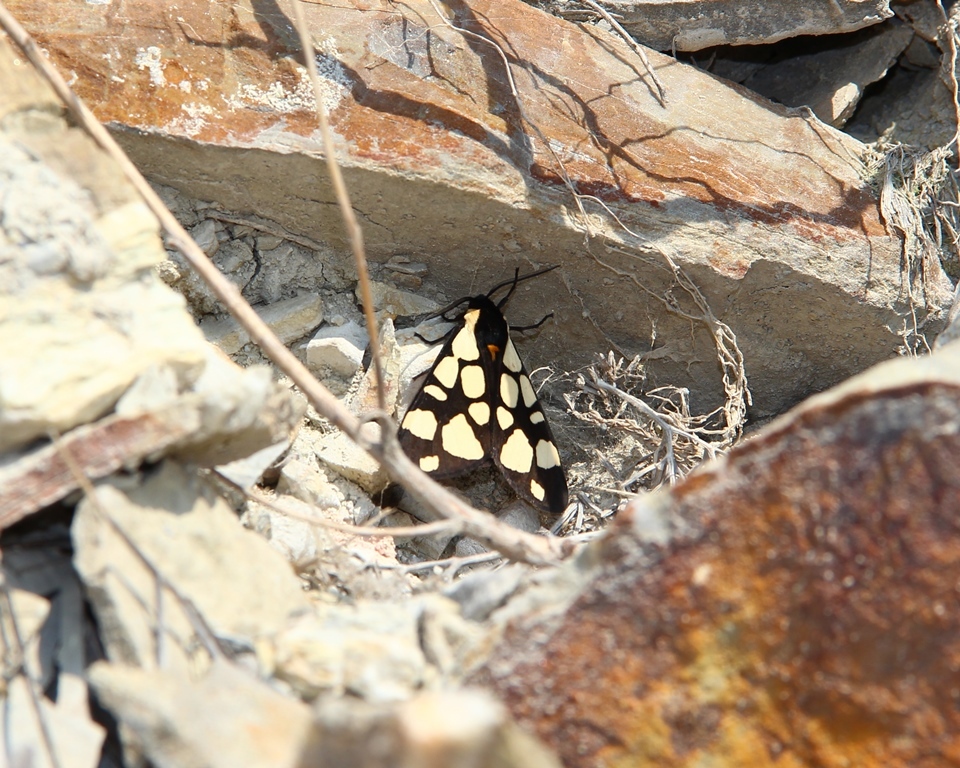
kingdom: Animalia
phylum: Arthropoda
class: Insecta
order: Lepidoptera
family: Erebidae
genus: Epicallia
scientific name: Epicallia villica
